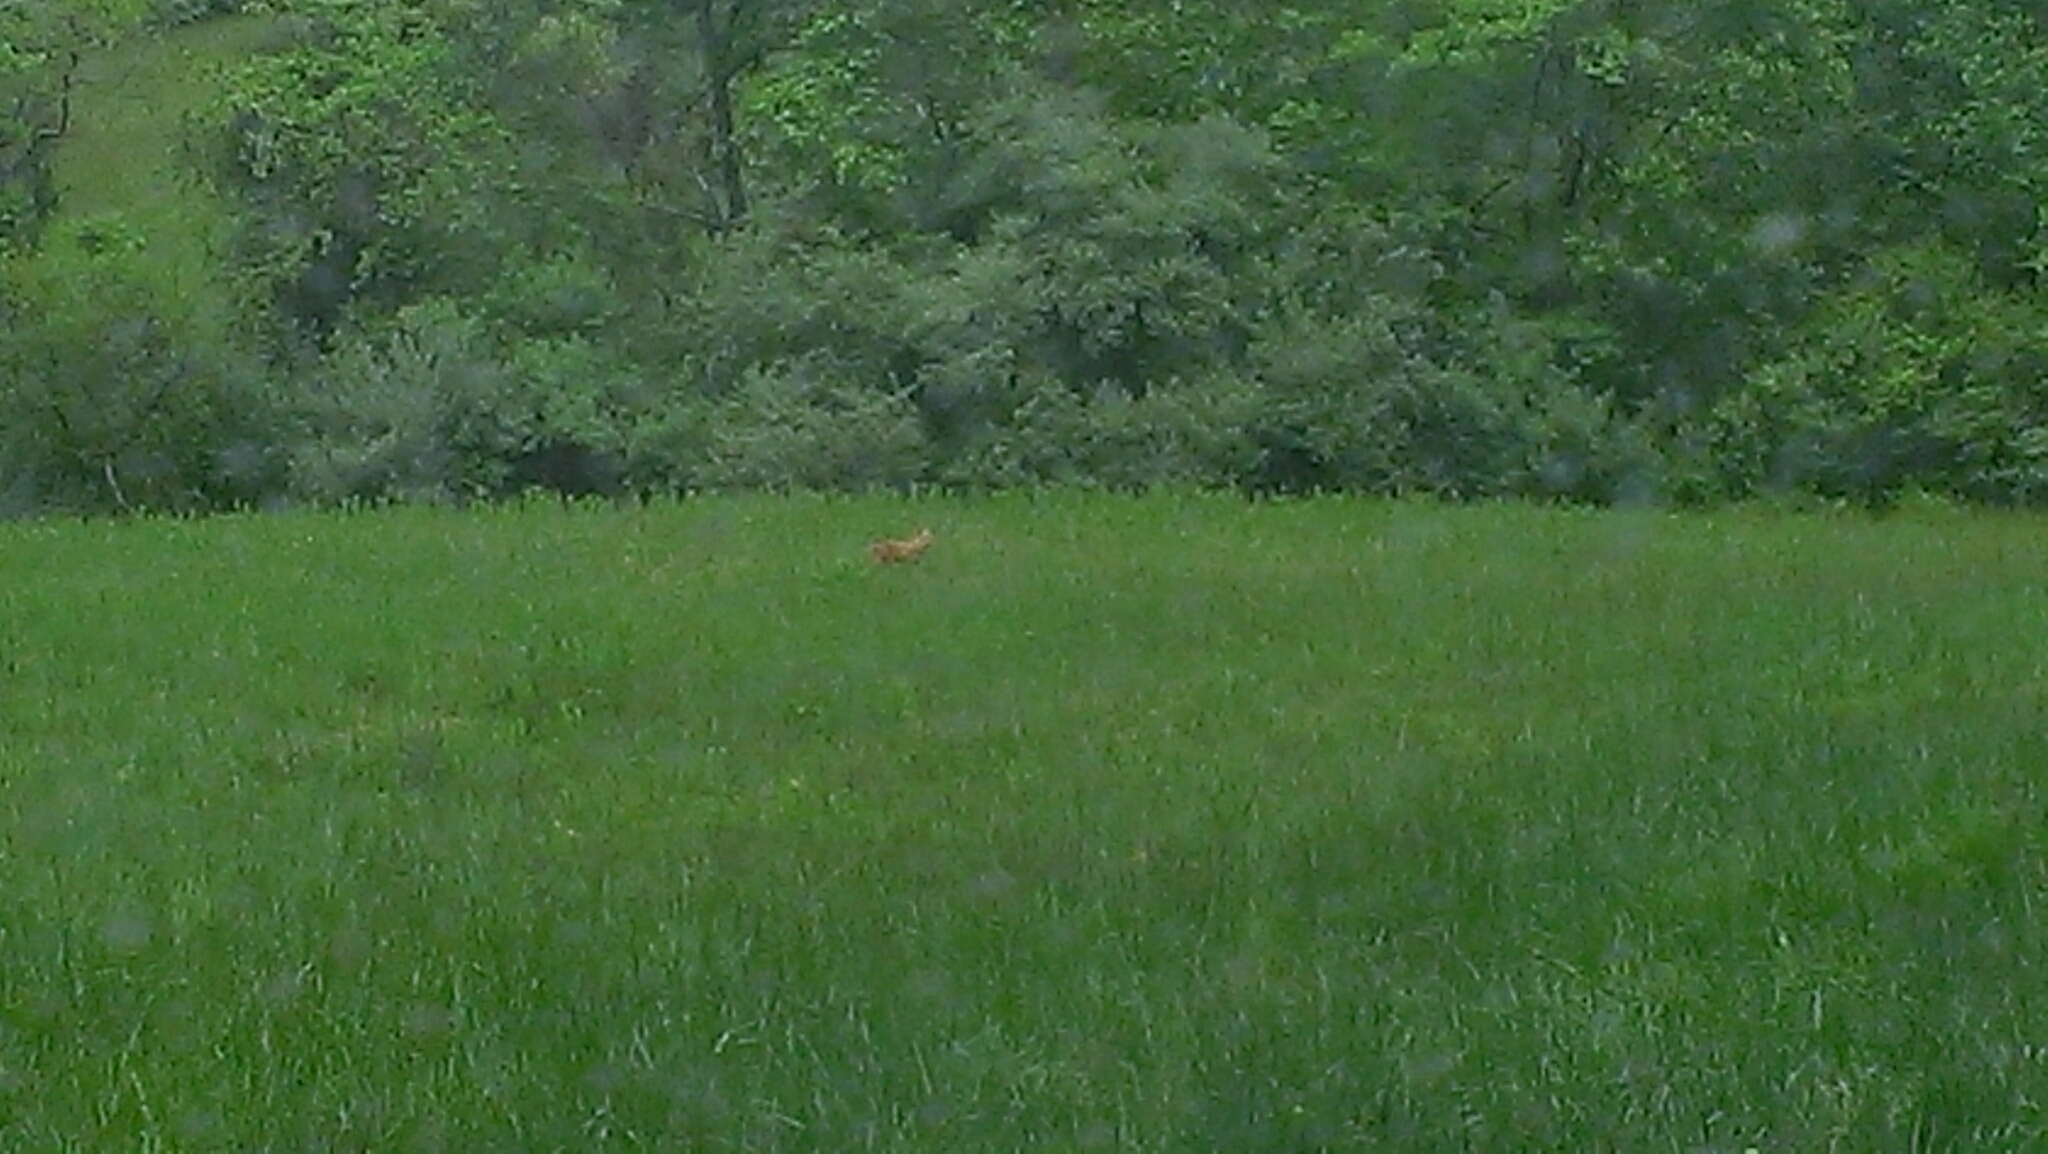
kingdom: Animalia
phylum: Chordata
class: Mammalia
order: Carnivora
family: Canidae
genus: Vulpes
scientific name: Vulpes vulpes
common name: Red fox
